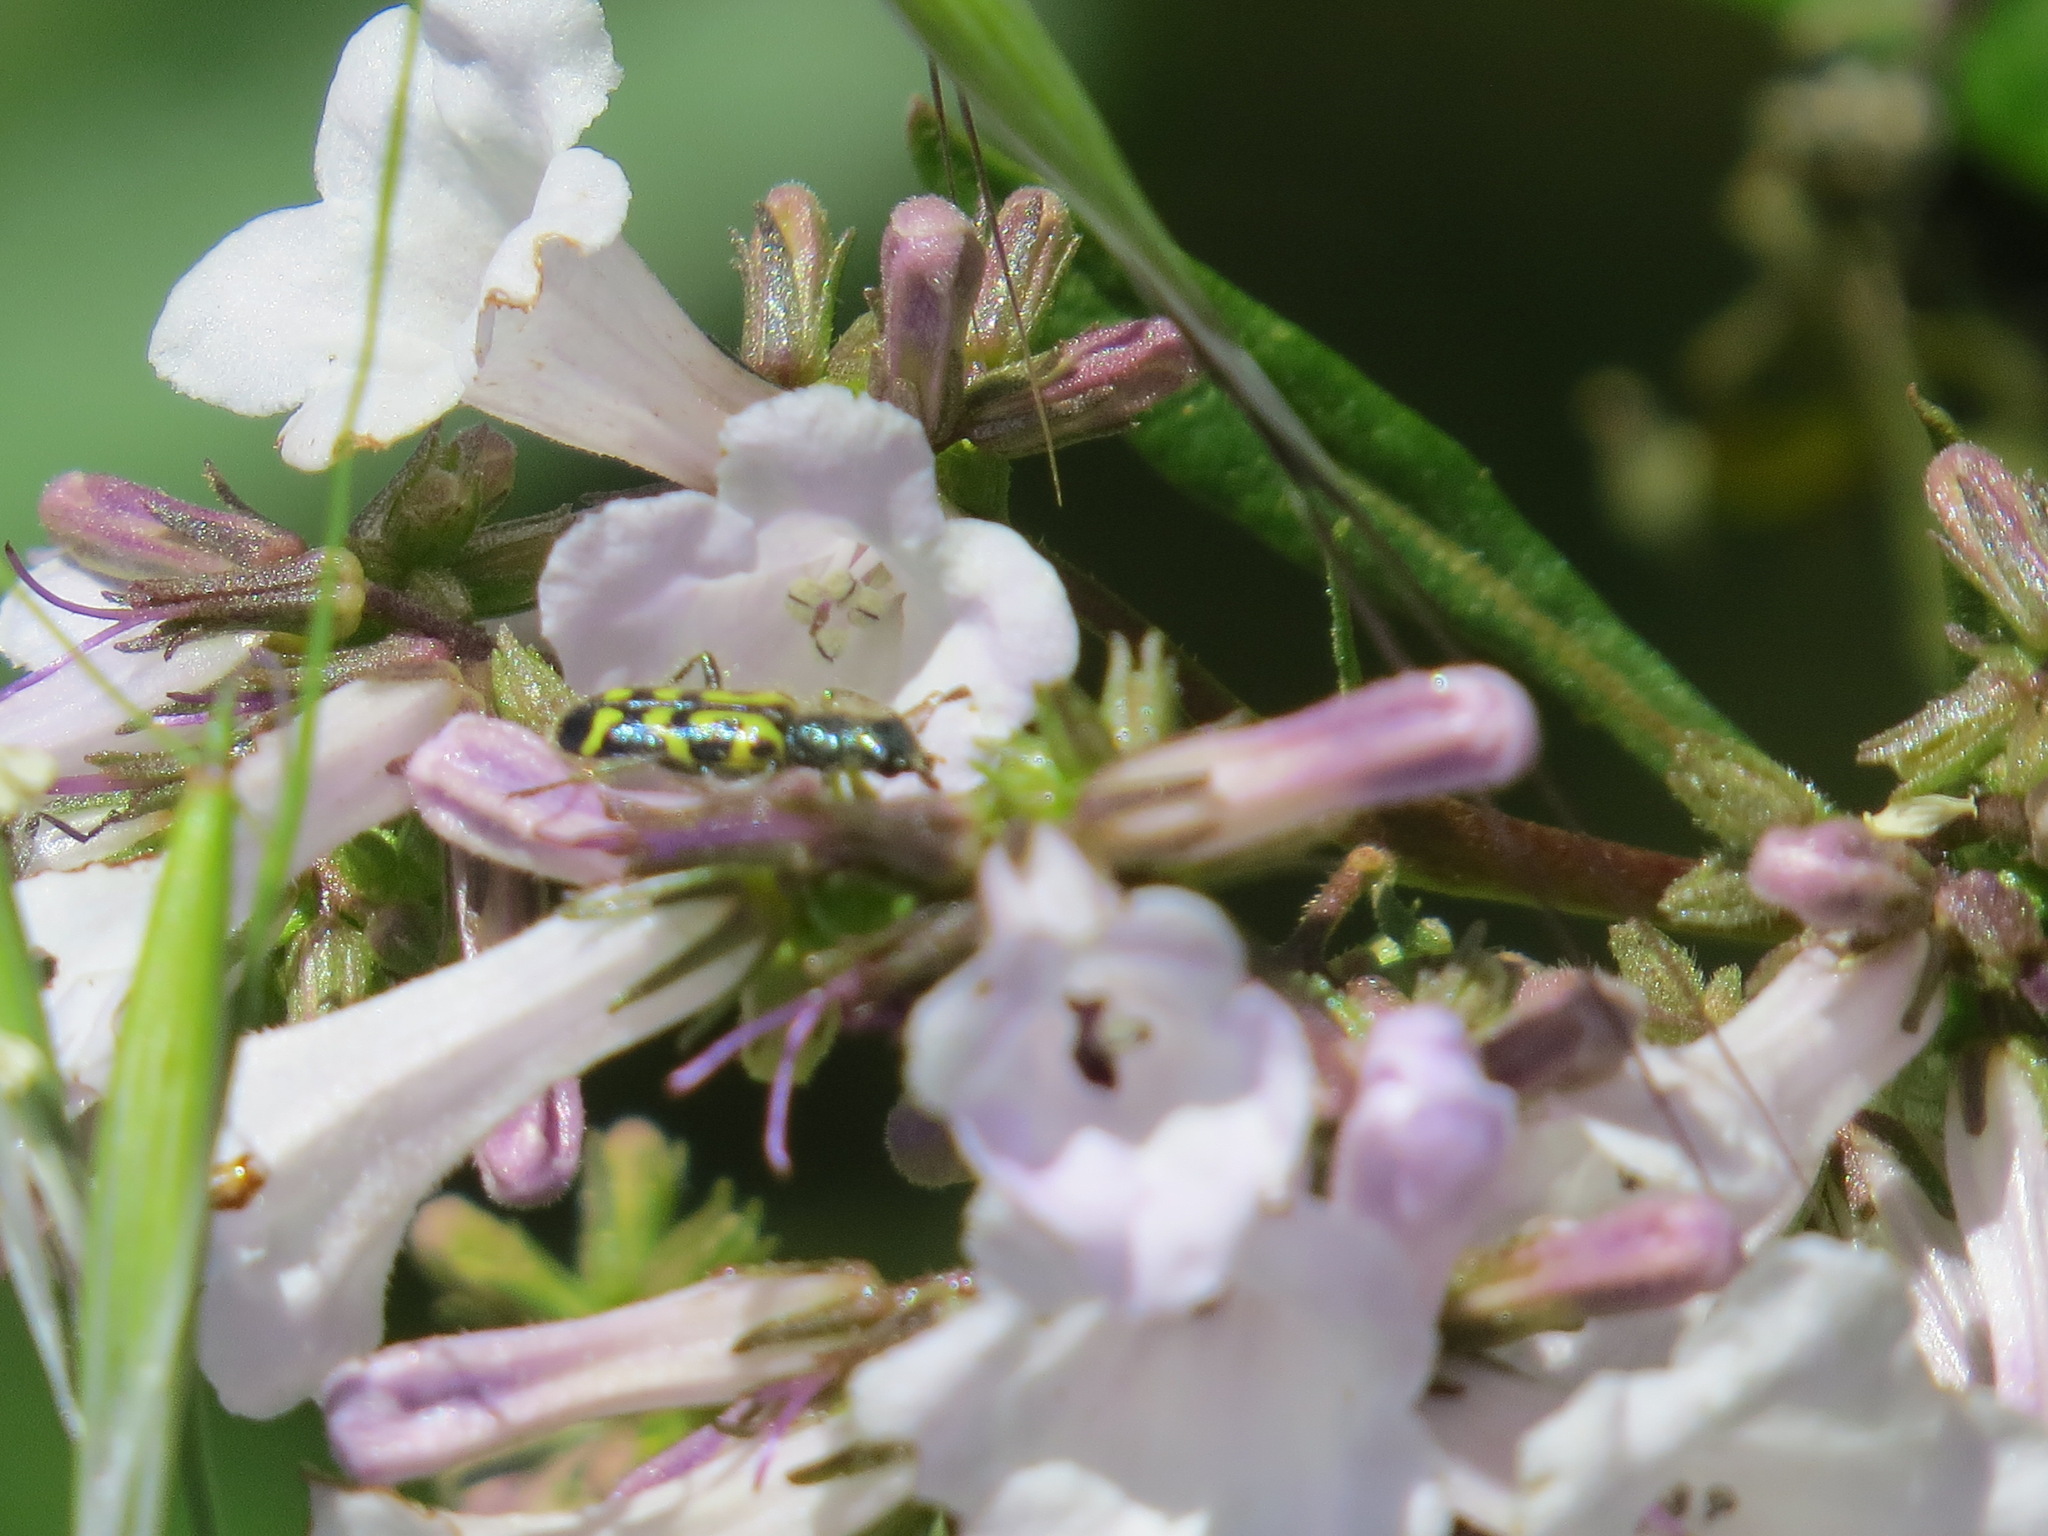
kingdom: Animalia
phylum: Arthropoda
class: Insecta
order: Coleoptera
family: Cleridae
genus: Trichodes
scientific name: Trichodes ornatus
